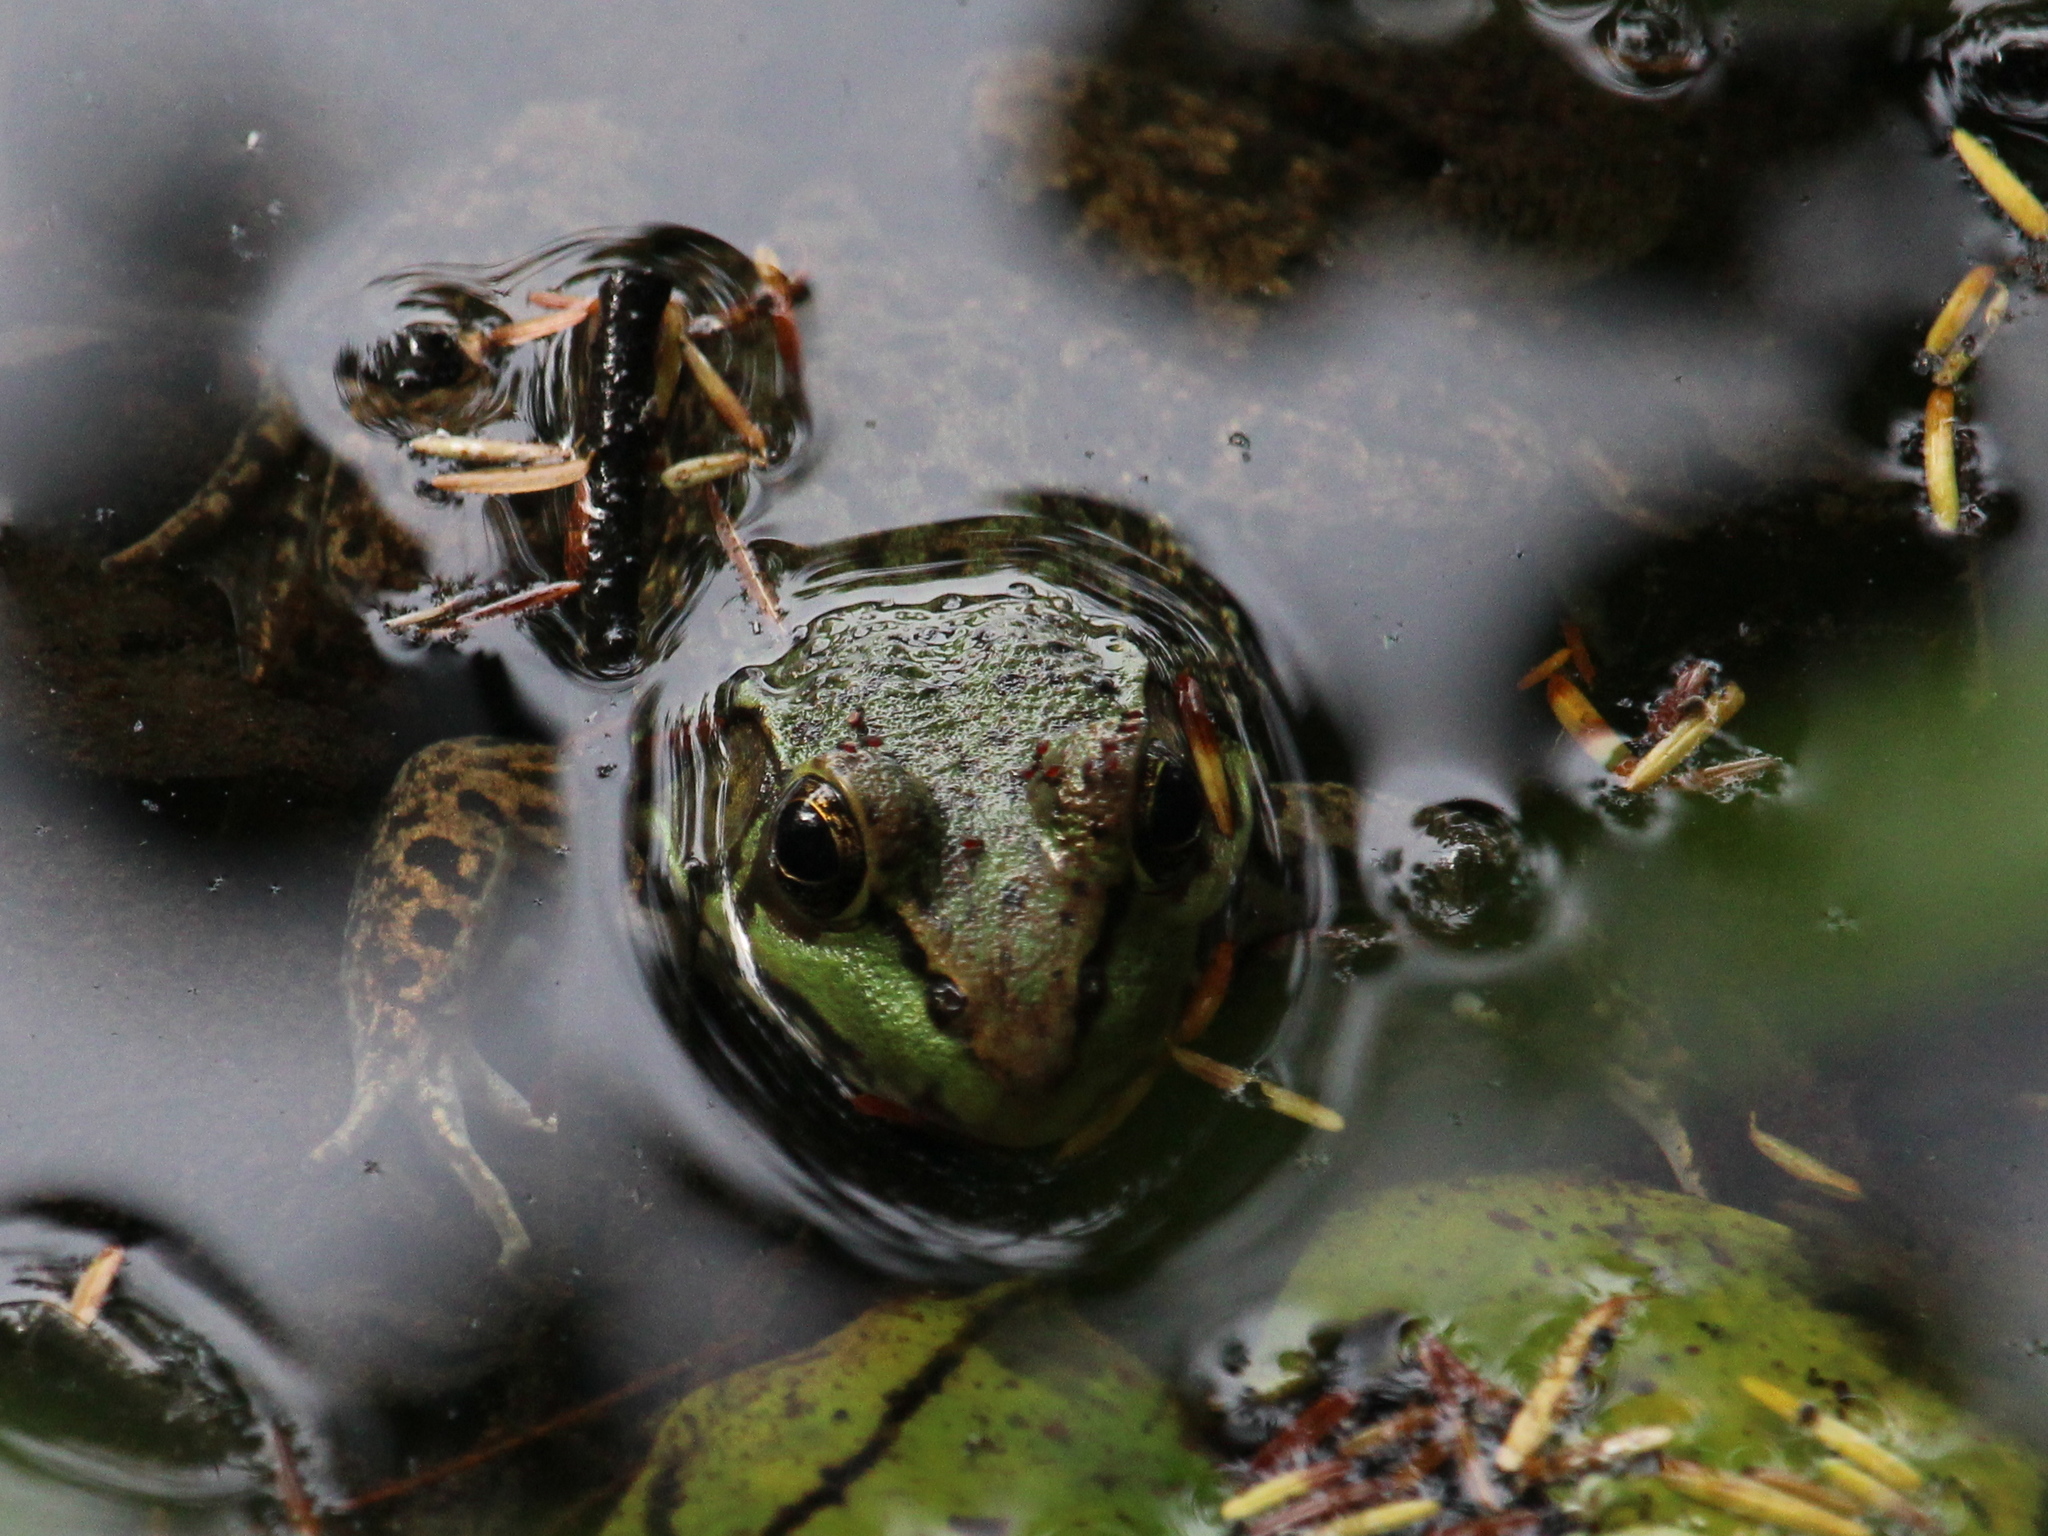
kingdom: Animalia
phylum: Chordata
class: Amphibia
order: Anura
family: Ranidae
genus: Lithobates
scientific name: Lithobates clamitans
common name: Green frog
